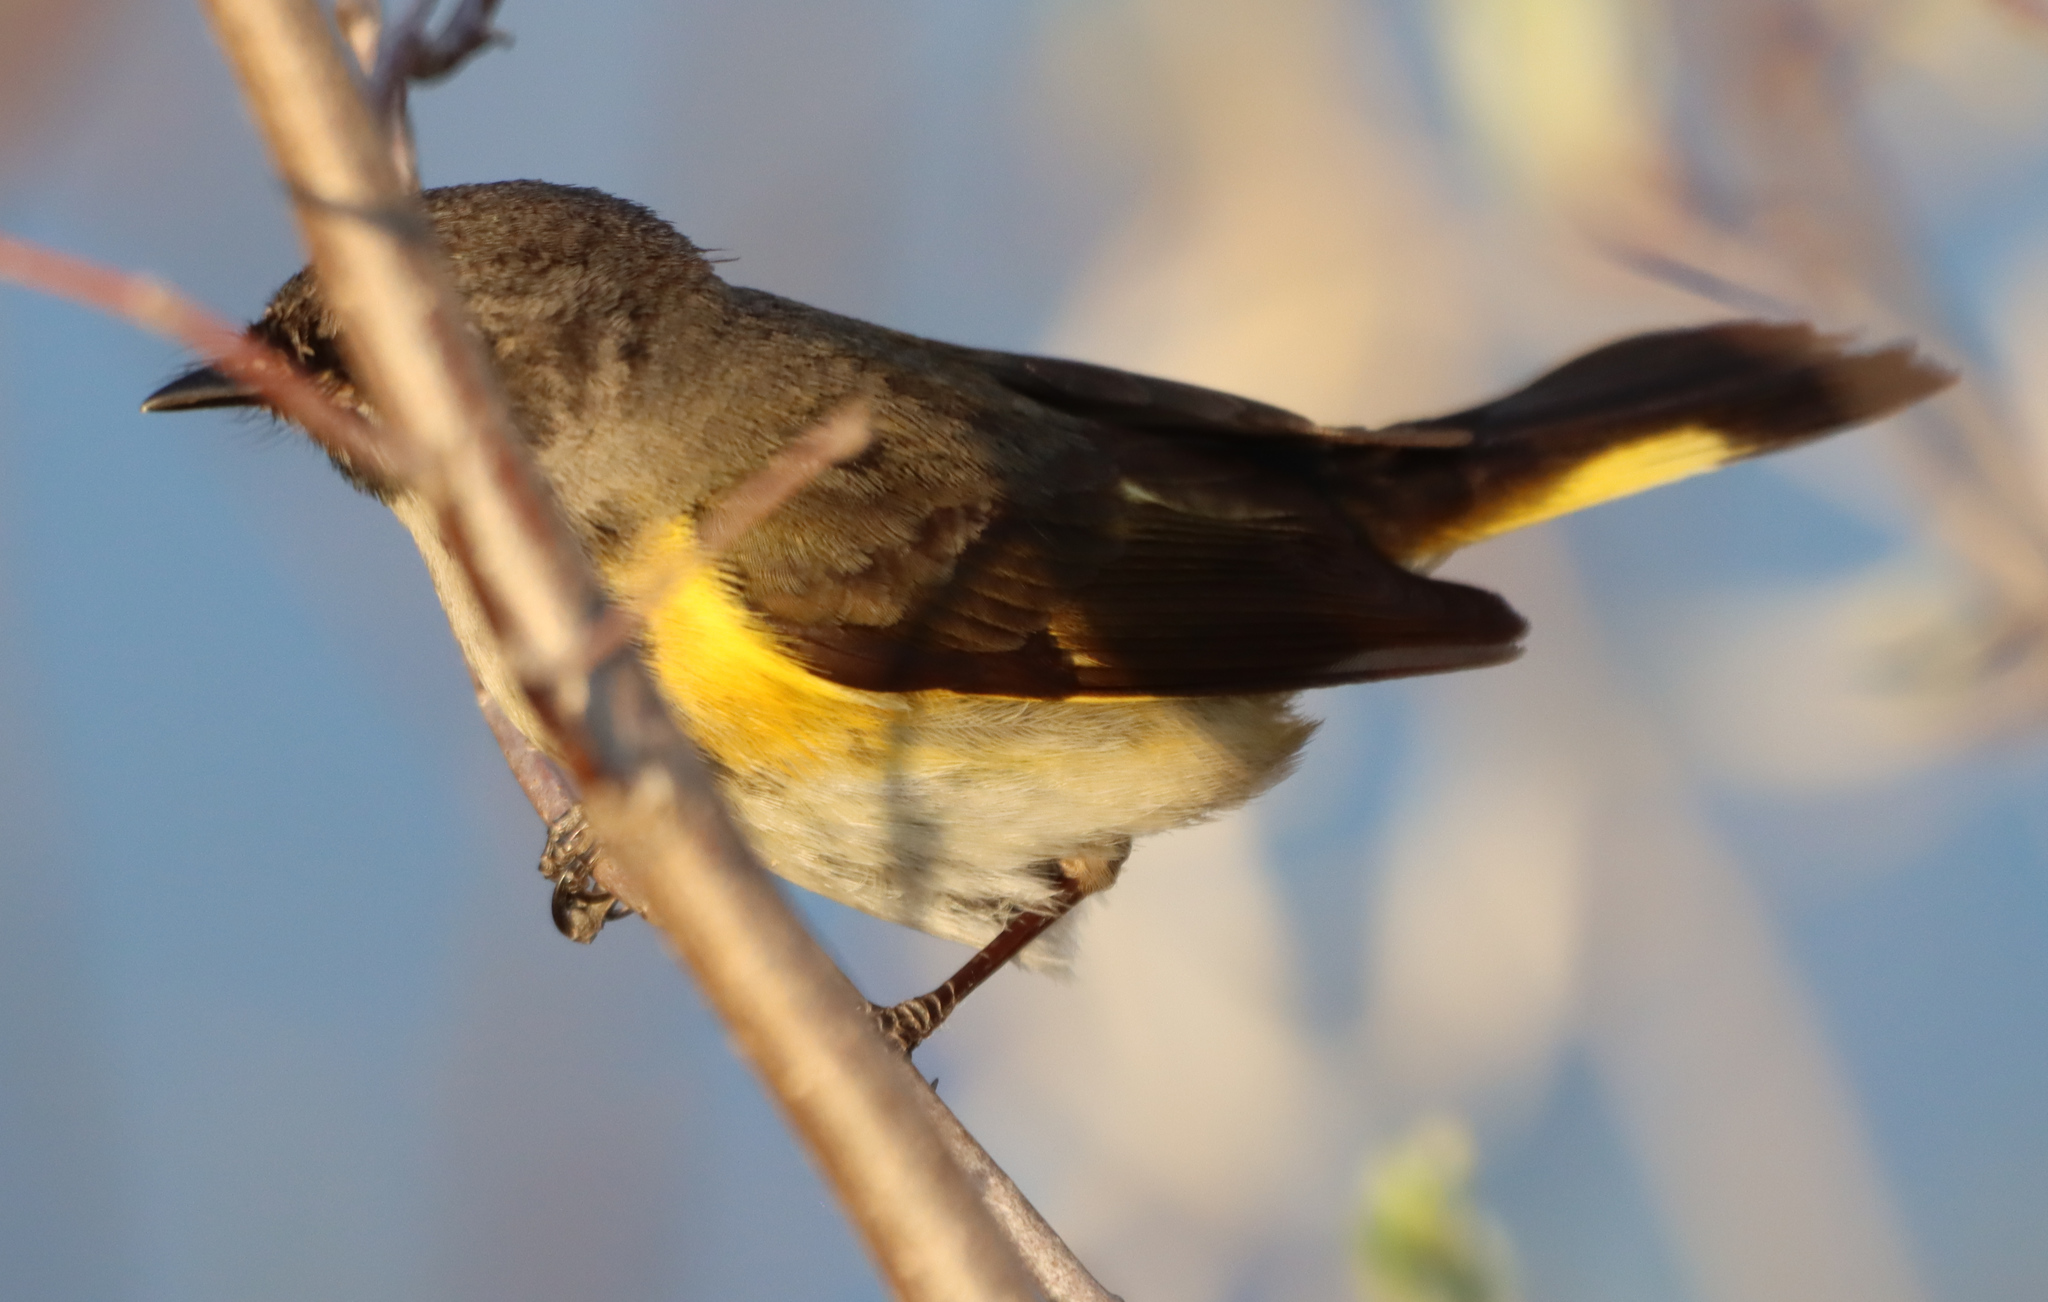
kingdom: Animalia
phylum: Chordata
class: Aves
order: Passeriformes
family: Parulidae
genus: Setophaga
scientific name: Setophaga ruticilla
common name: American redstart
